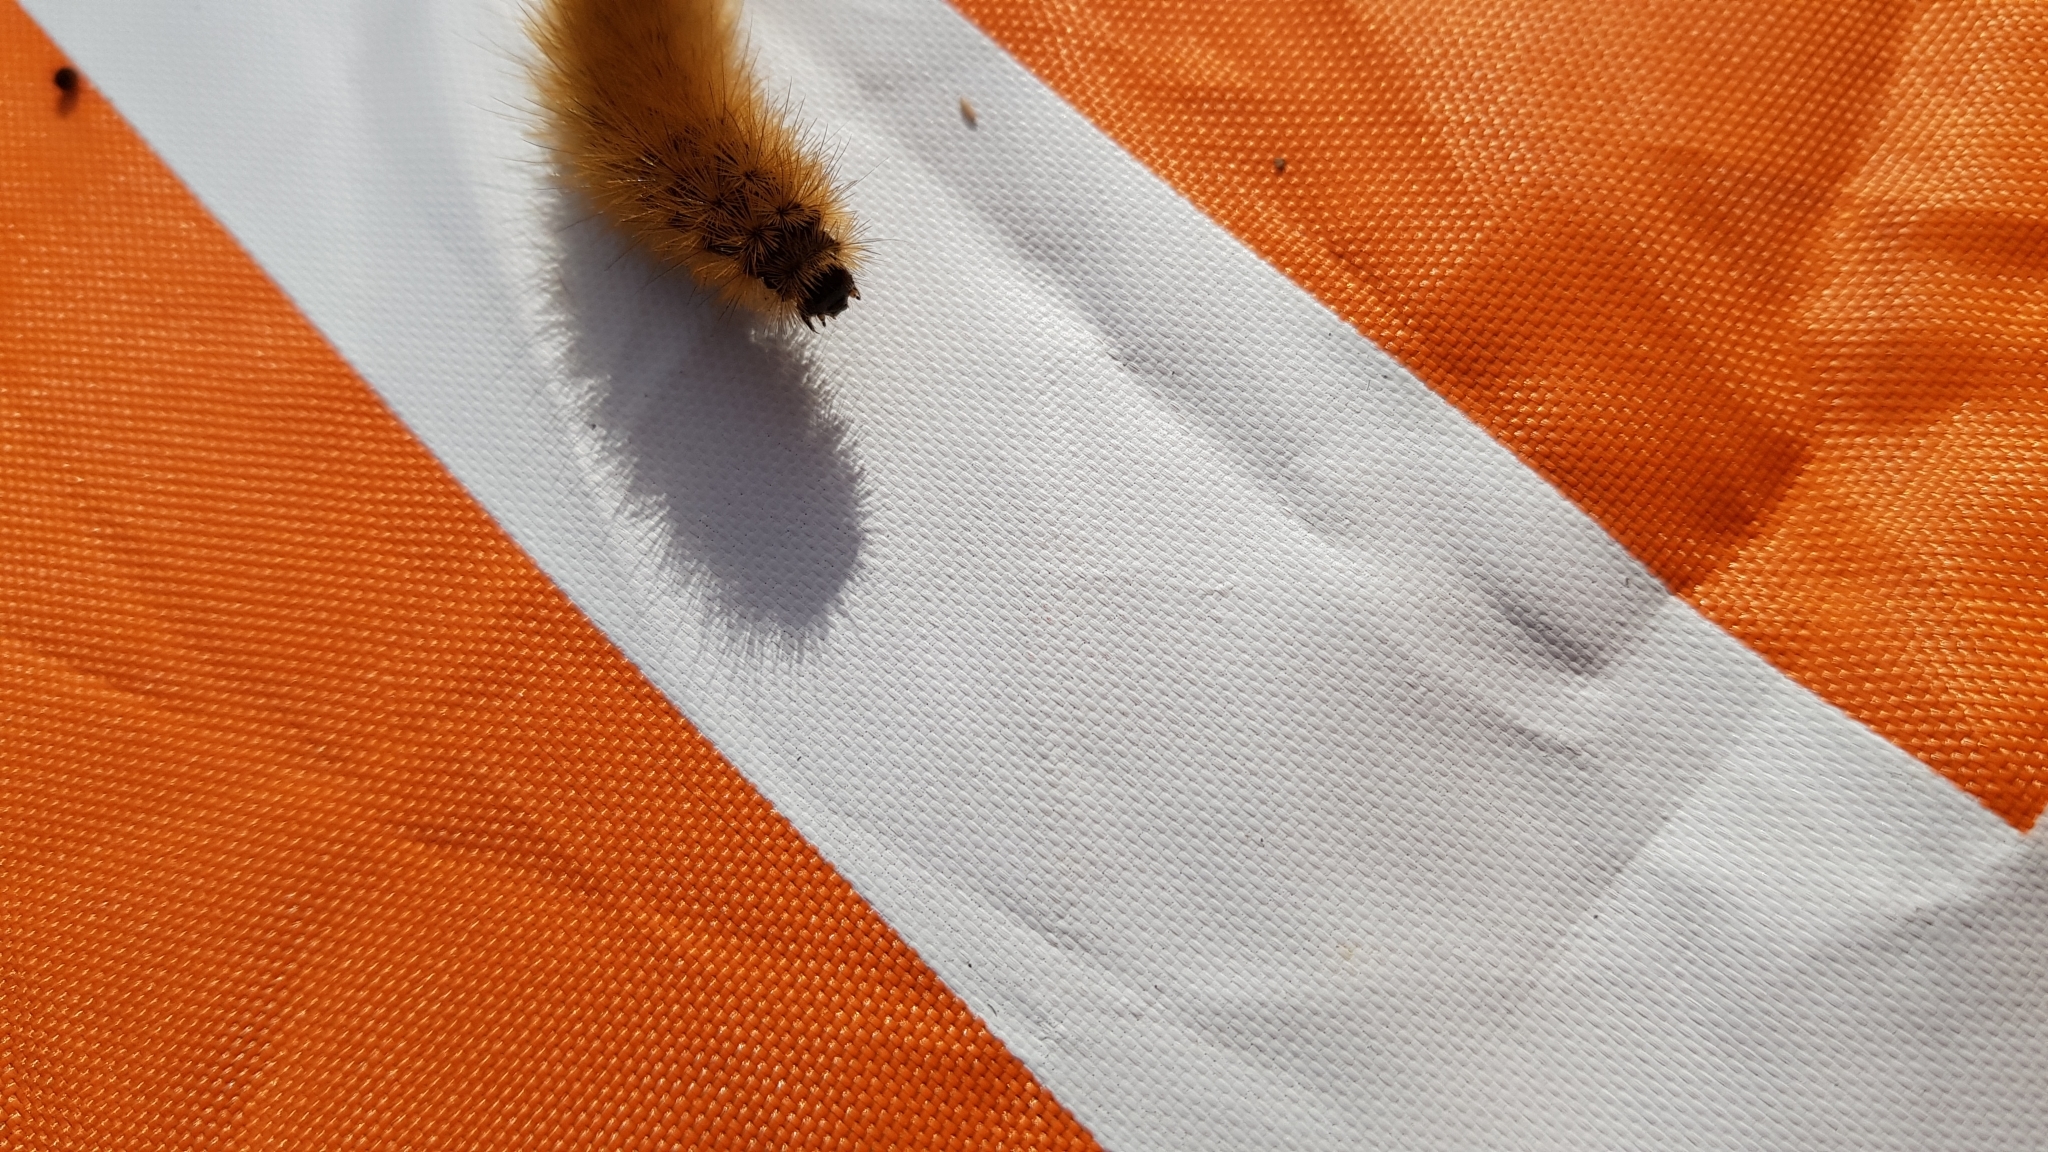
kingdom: Animalia
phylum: Arthropoda
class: Insecta
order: Lepidoptera
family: Erebidae
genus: Phragmatobia
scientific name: Phragmatobia fuliginosa
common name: Ruby tiger
